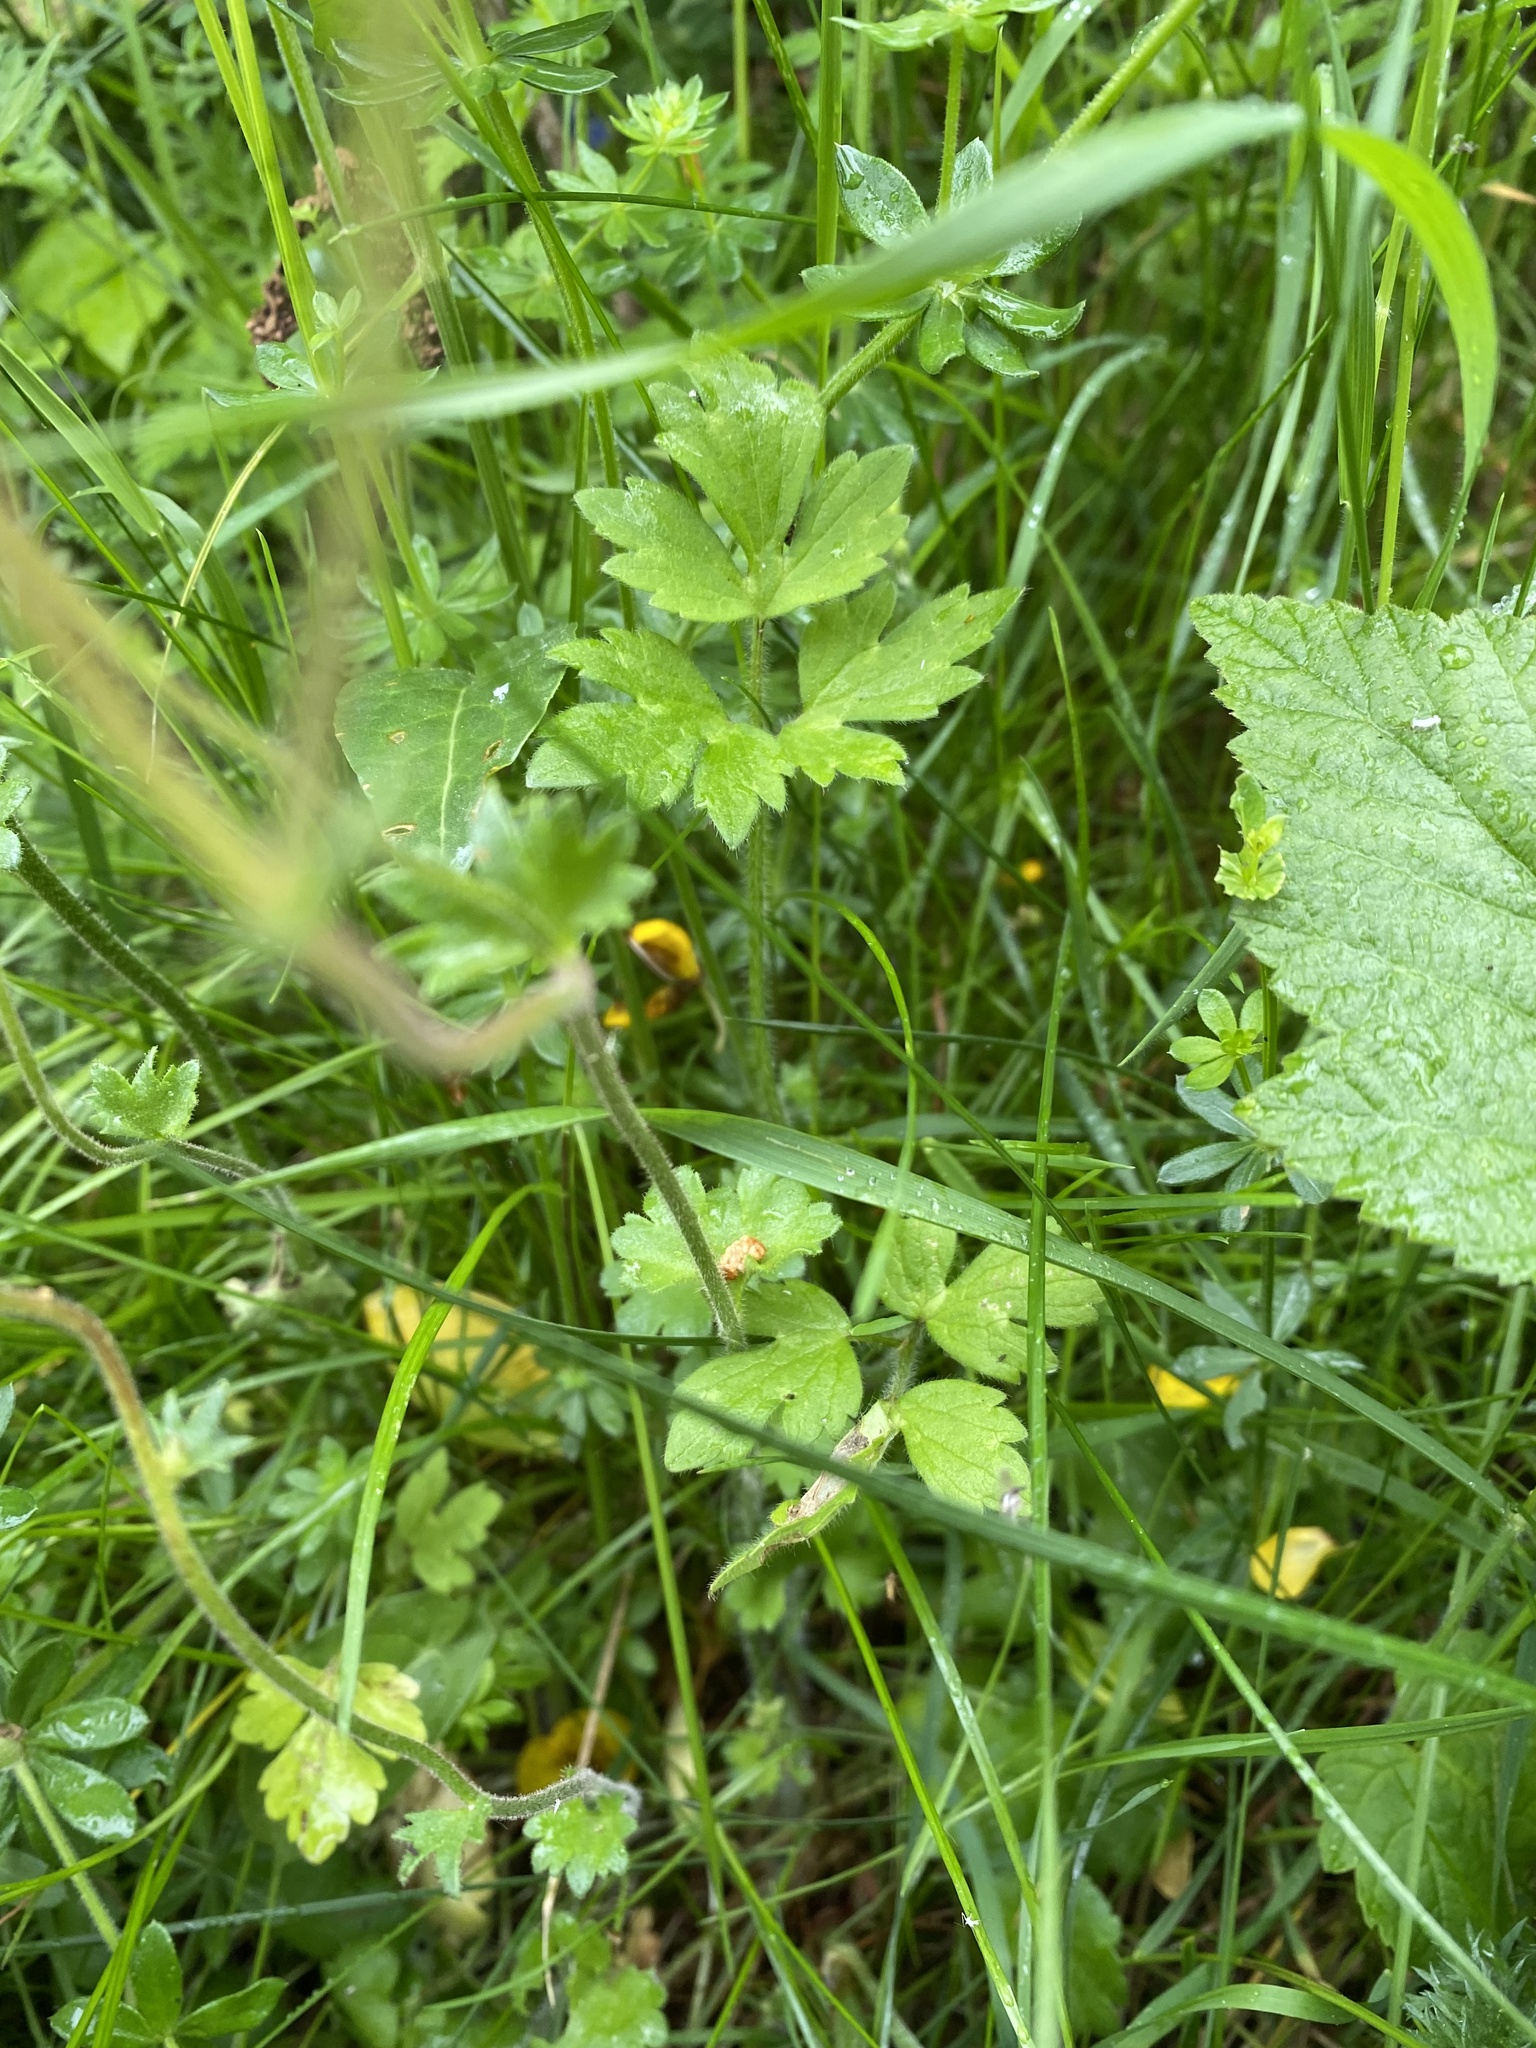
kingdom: Plantae
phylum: Tracheophyta
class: Magnoliopsida
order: Saxifragales
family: Saxifragaceae
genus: Saxifraga
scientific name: Saxifraga granulata
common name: Meadow saxifrage
